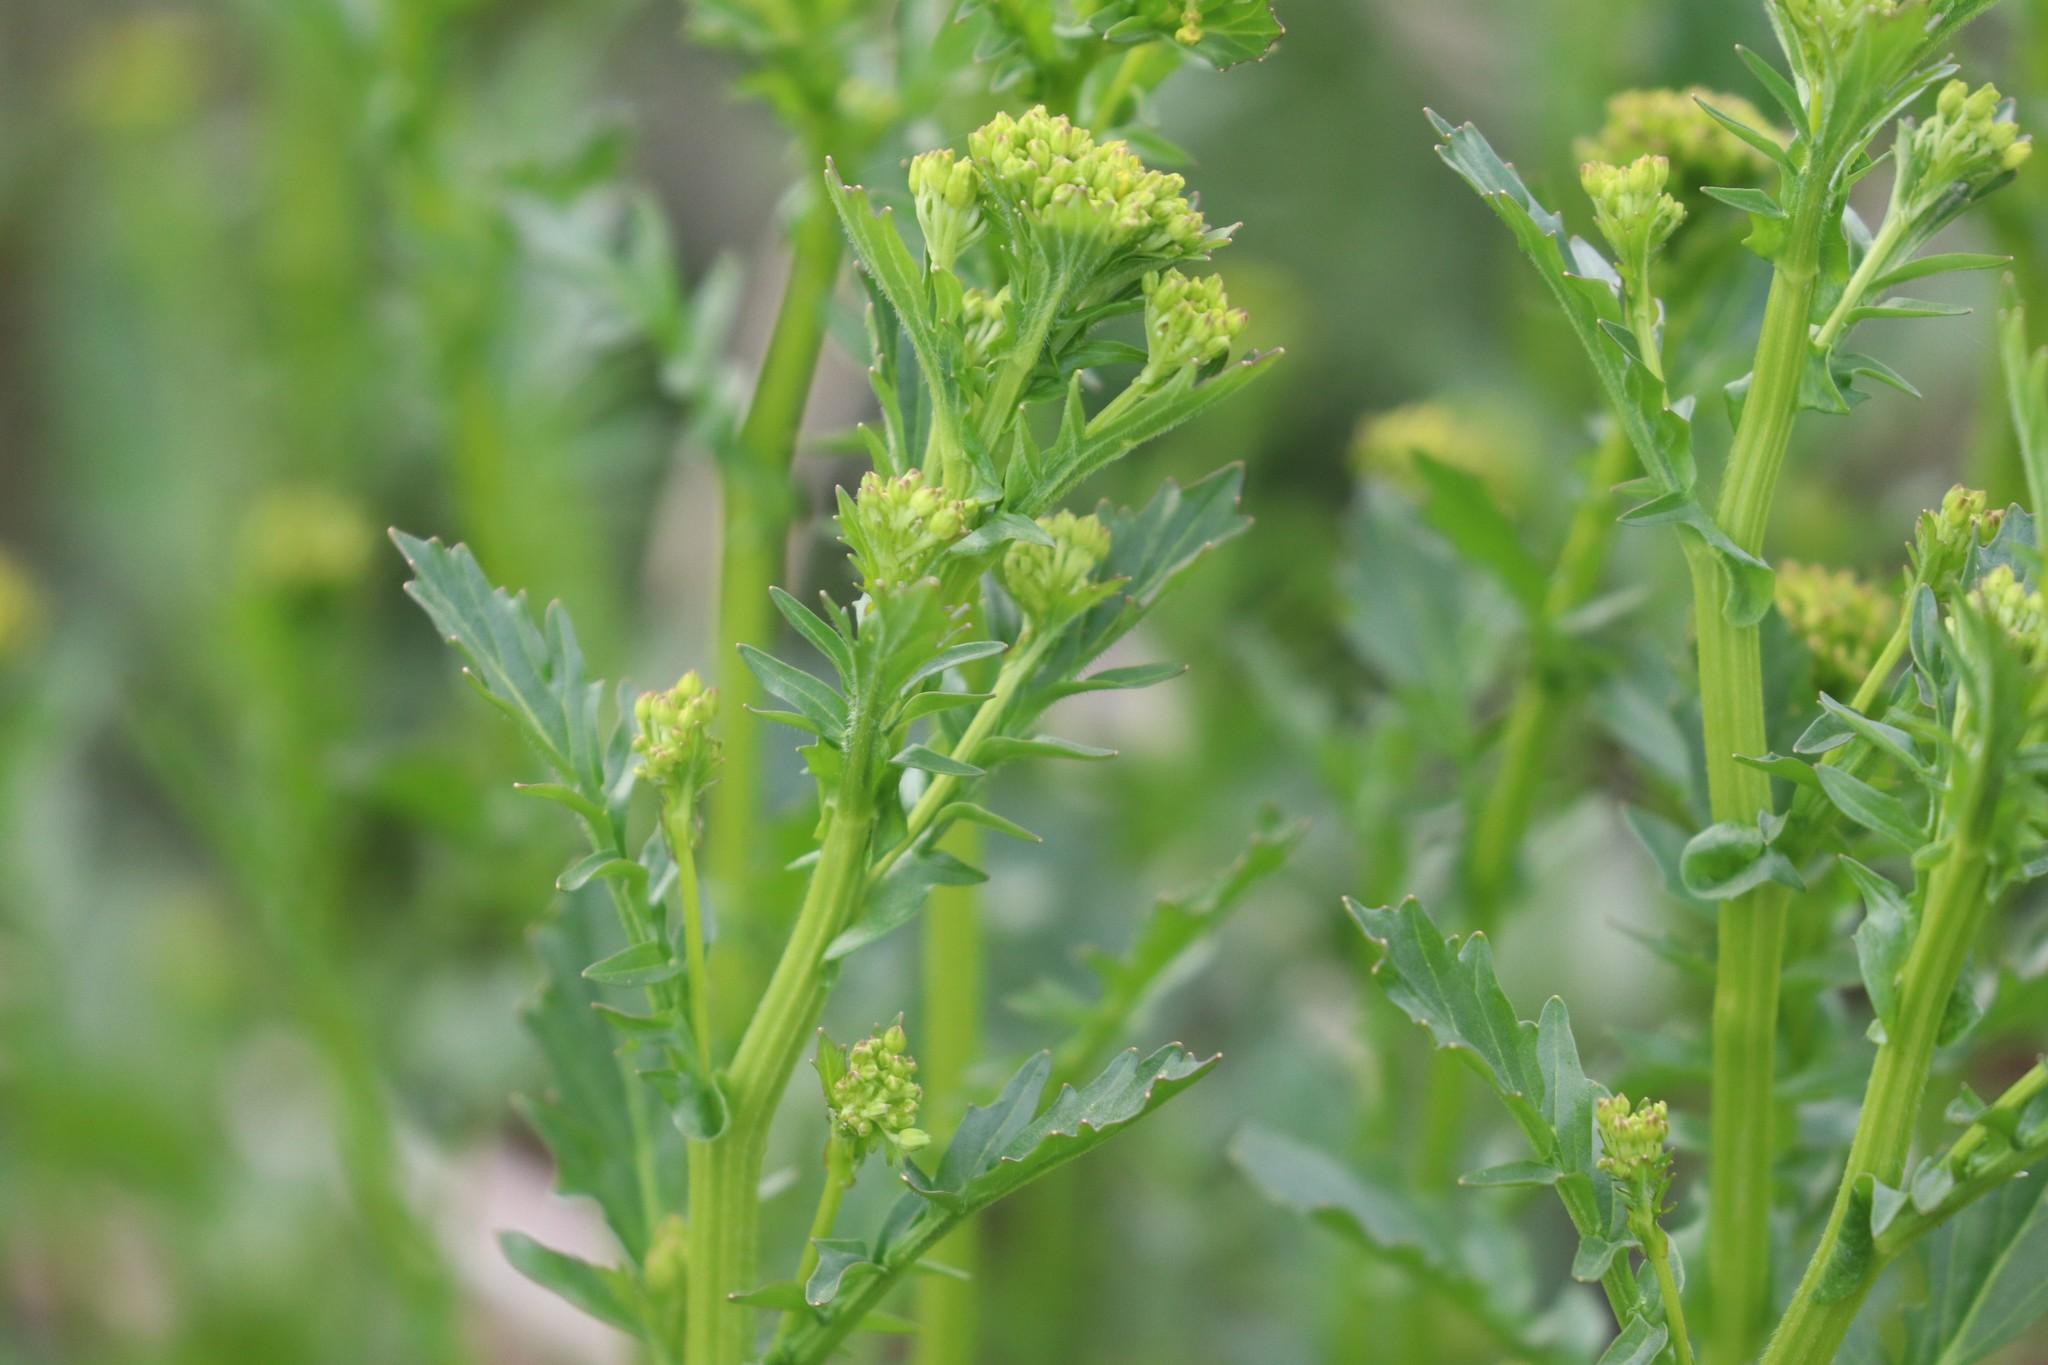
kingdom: Plantae
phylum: Tracheophyta
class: Magnoliopsida
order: Brassicales
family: Brassicaceae
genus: Barbarea
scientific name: Barbarea vulgaris
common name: Cressy-greens
